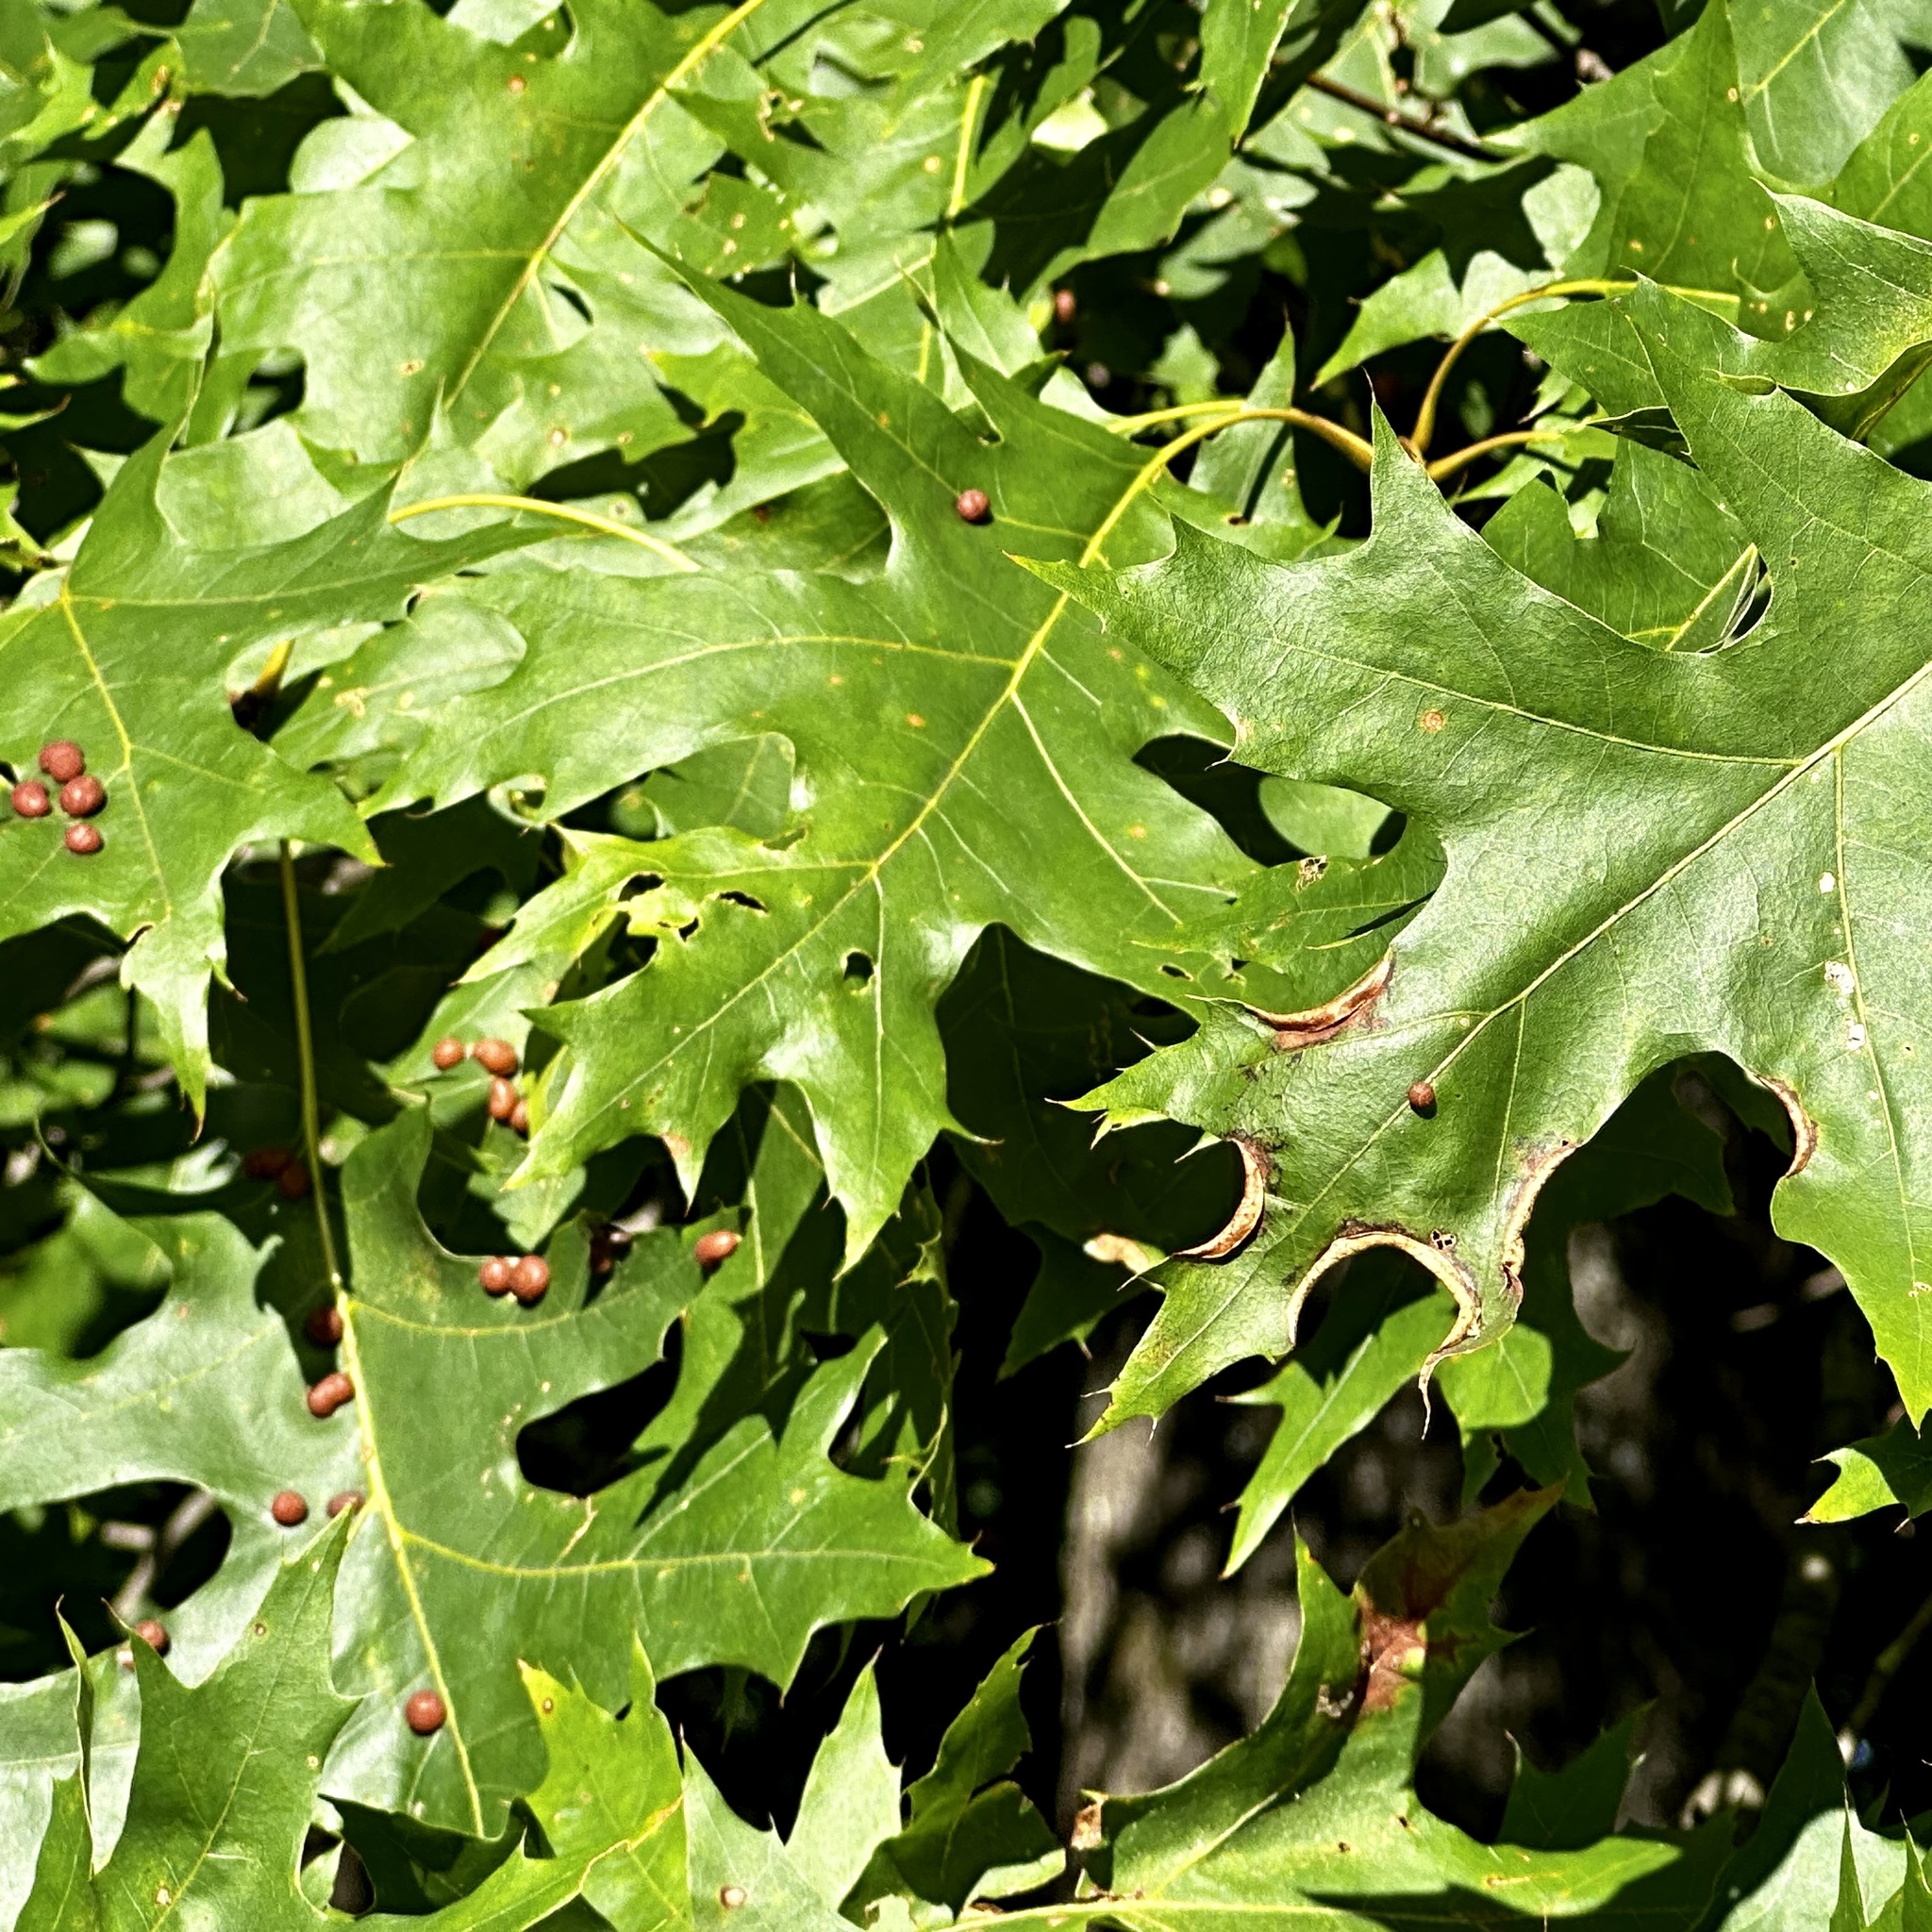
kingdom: Animalia
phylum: Arthropoda
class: Insecta
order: Diptera
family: Cecidomyiidae
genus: Macrodiplosis
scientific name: Macrodiplosis erubescens
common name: Marginal leaf fold gall midge
